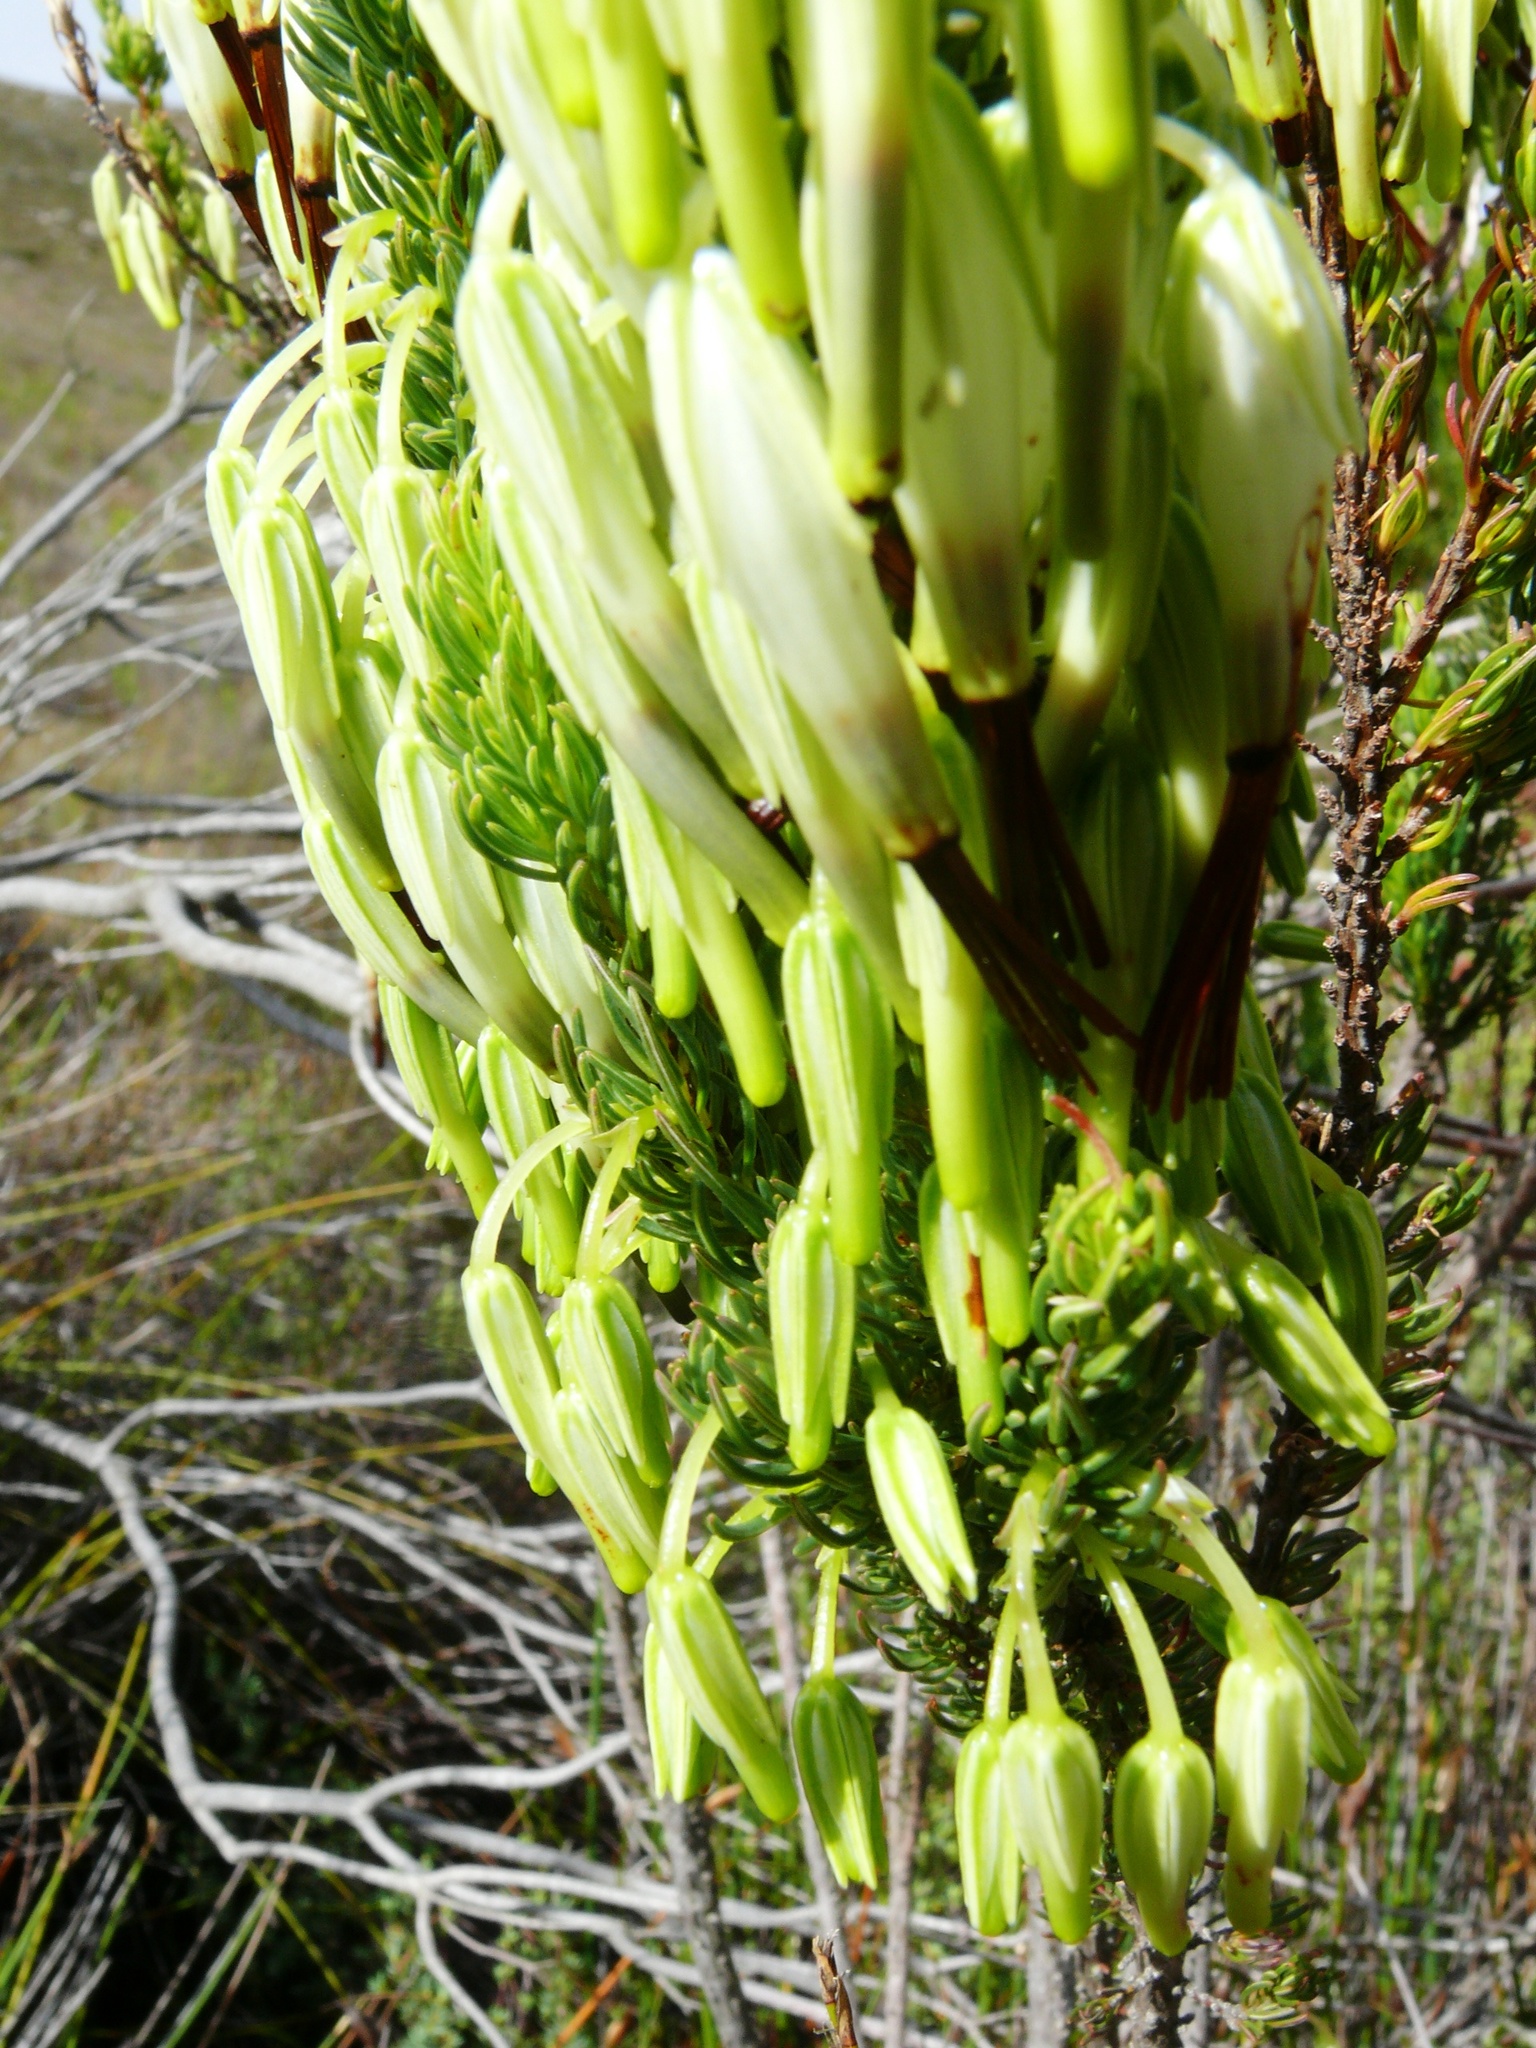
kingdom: Plantae
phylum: Tracheophyta
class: Magnoliopsida
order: Ericales
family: Ericaceae
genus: Erica
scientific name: Erica plukenetii
